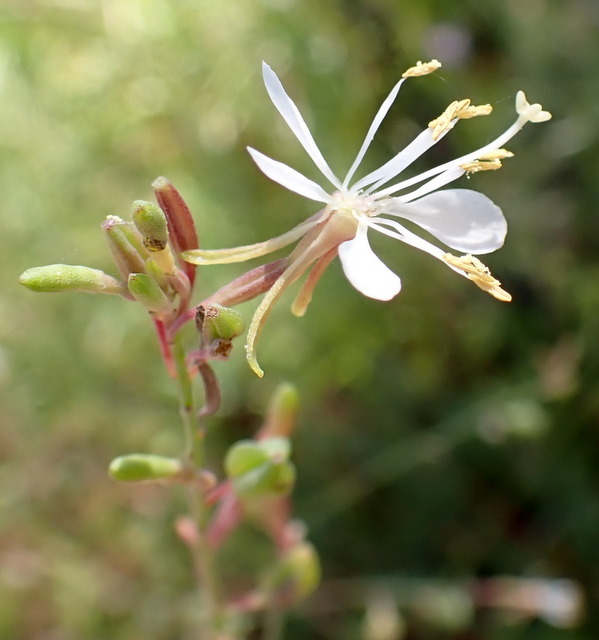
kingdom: Plantae
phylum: Tracheophyta
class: Magnoliopsida
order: Myrtales
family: Onagraceae
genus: Oenothera
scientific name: Oenothera simulans
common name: Southern beeblossom
